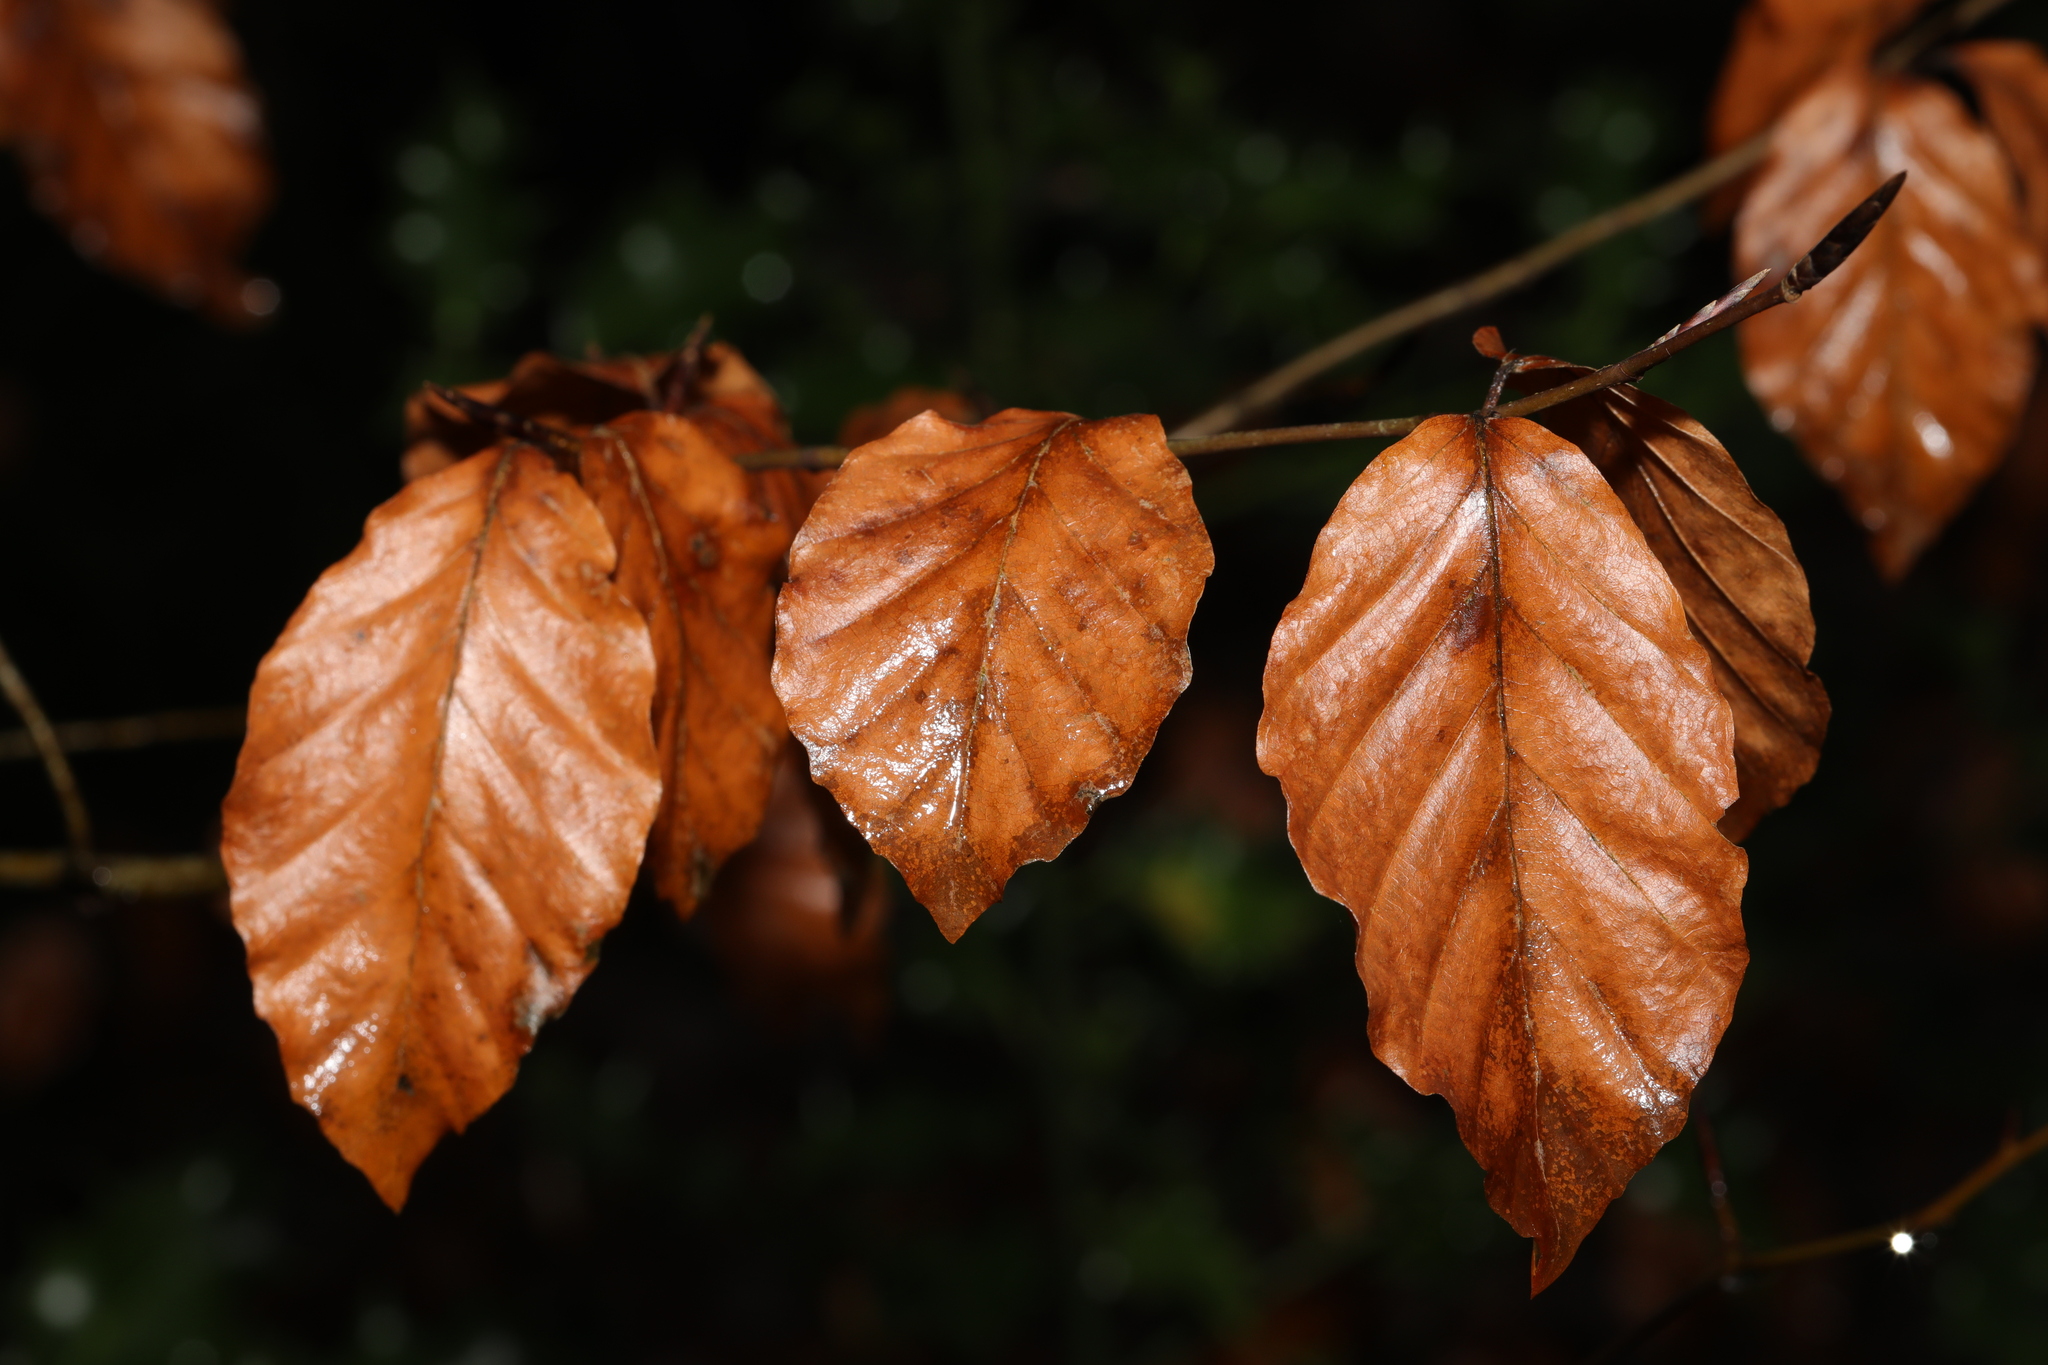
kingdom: Plantae
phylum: Tracheophyta
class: Magnoliopsida
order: Fagales
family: Fagaceae
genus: Fagus
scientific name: Fagus sylvatica
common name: Beech
